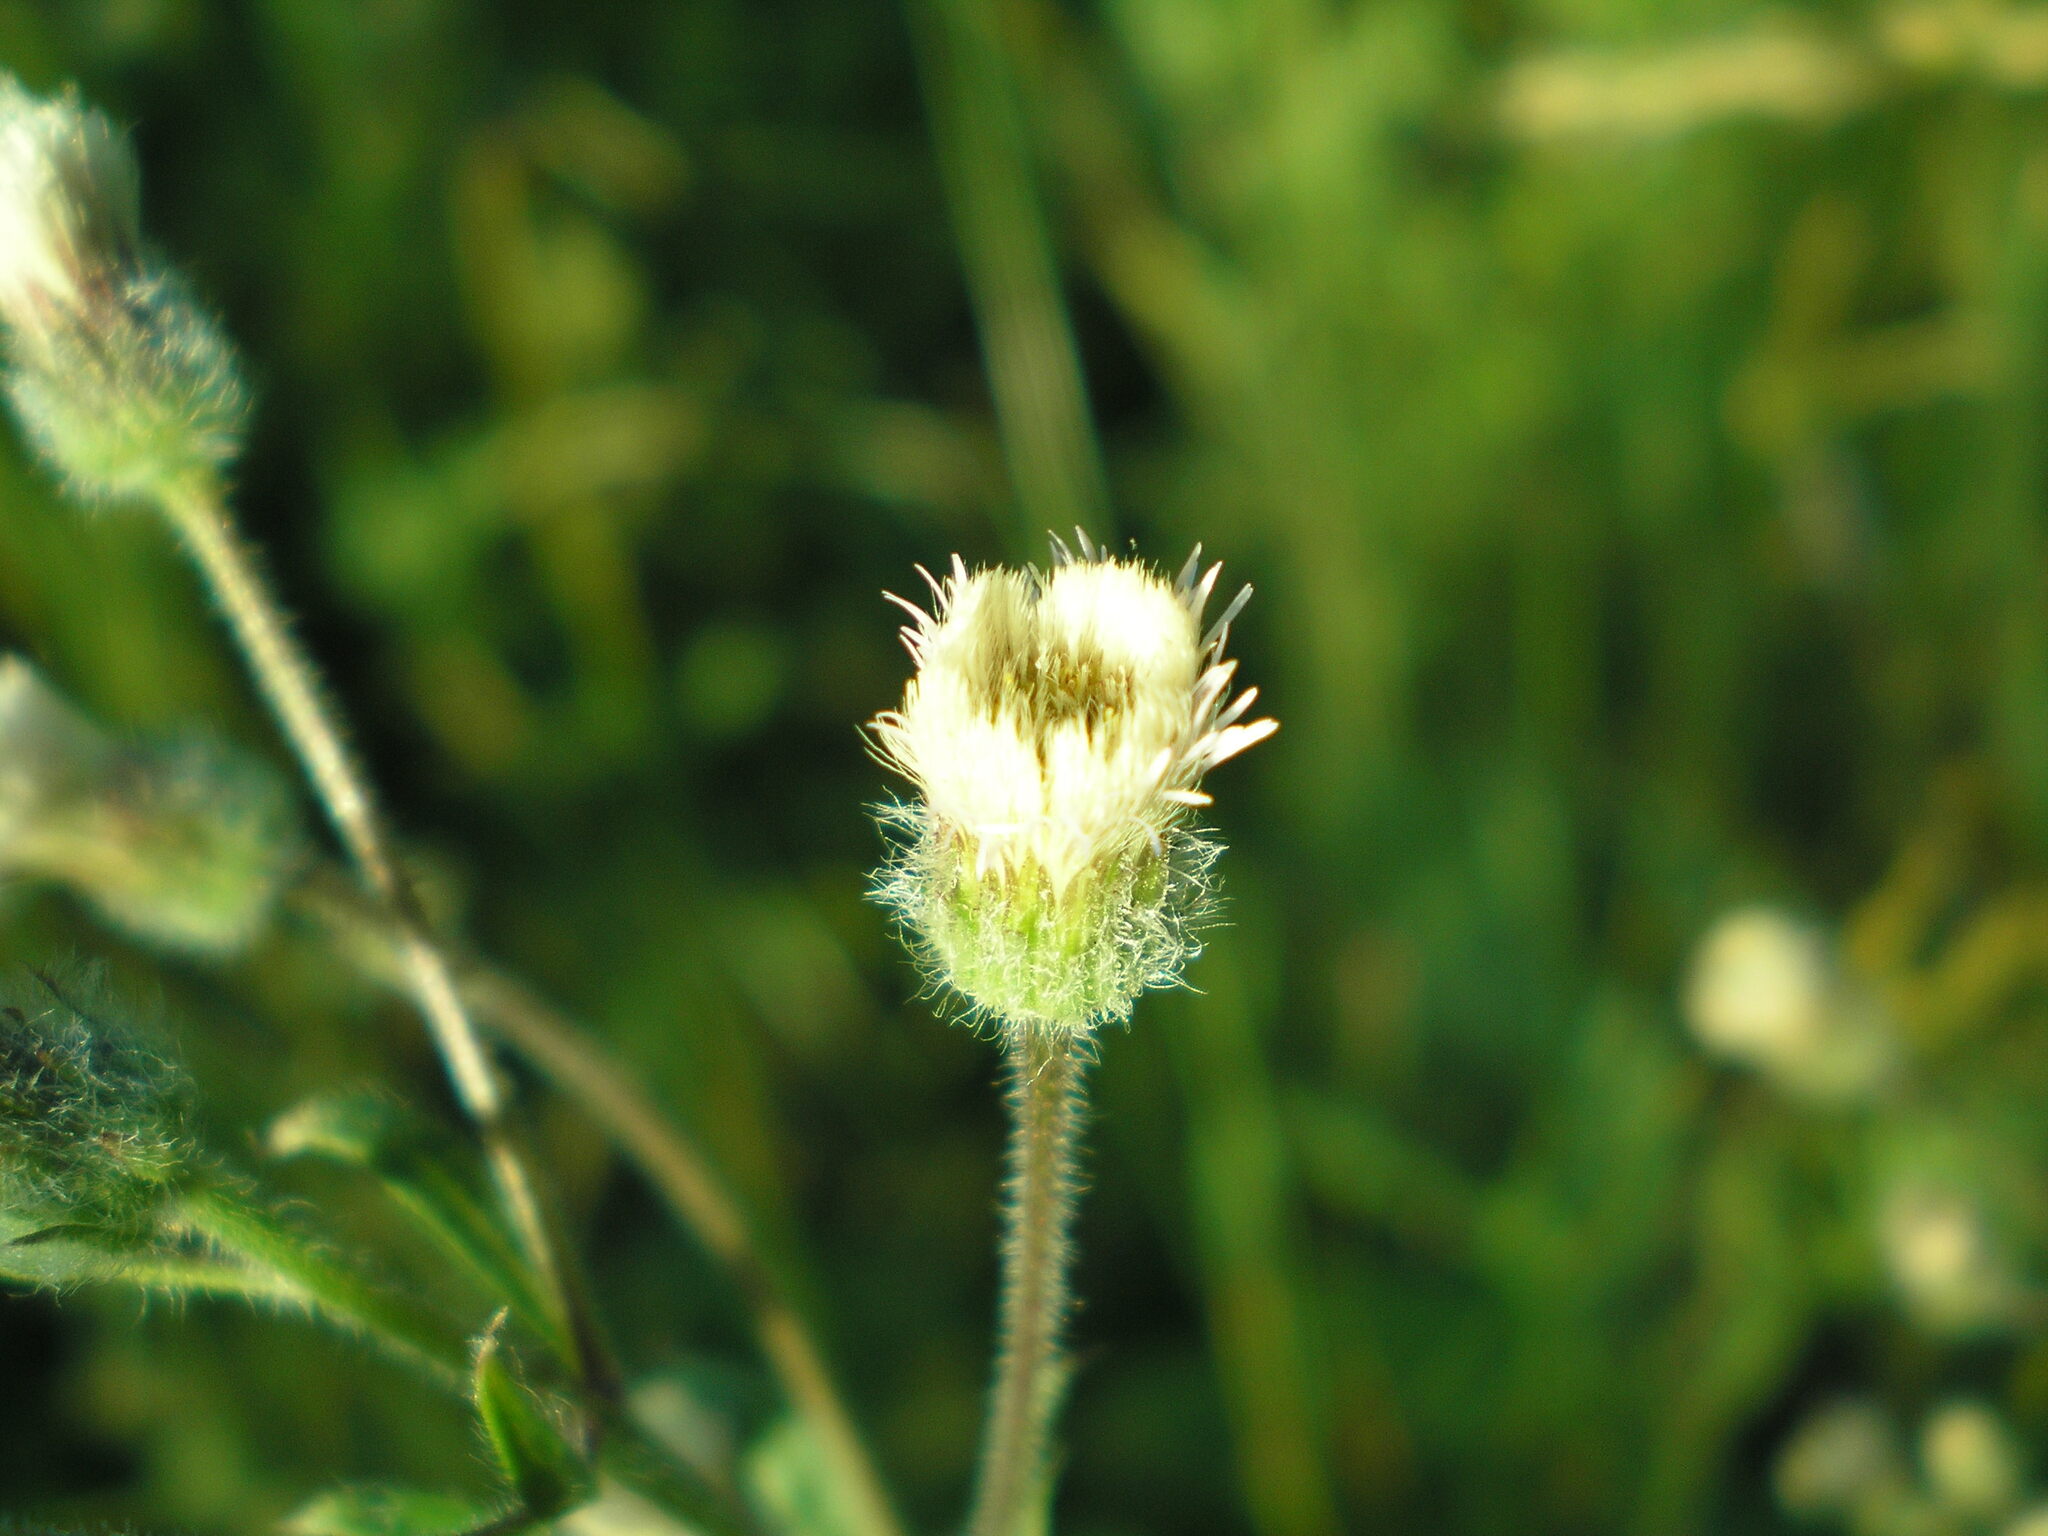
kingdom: Plantae
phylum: Tracheophyta
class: Magnoliopsida
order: Asterales
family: Asteraceae
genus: Erigeron
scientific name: Erigeron acris
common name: Blue fleabane
